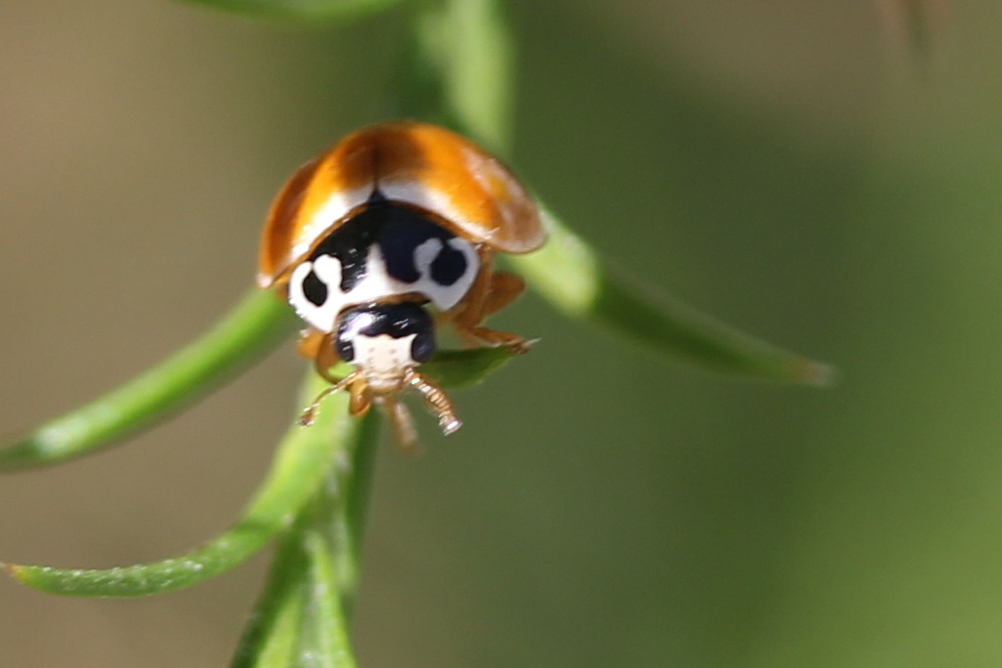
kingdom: Animalia
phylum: Arthropoda
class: Insecta
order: Coleoptera
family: Coccinellidae
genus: Cycloneda
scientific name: Cycloneda munda
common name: Polished lady beetle
